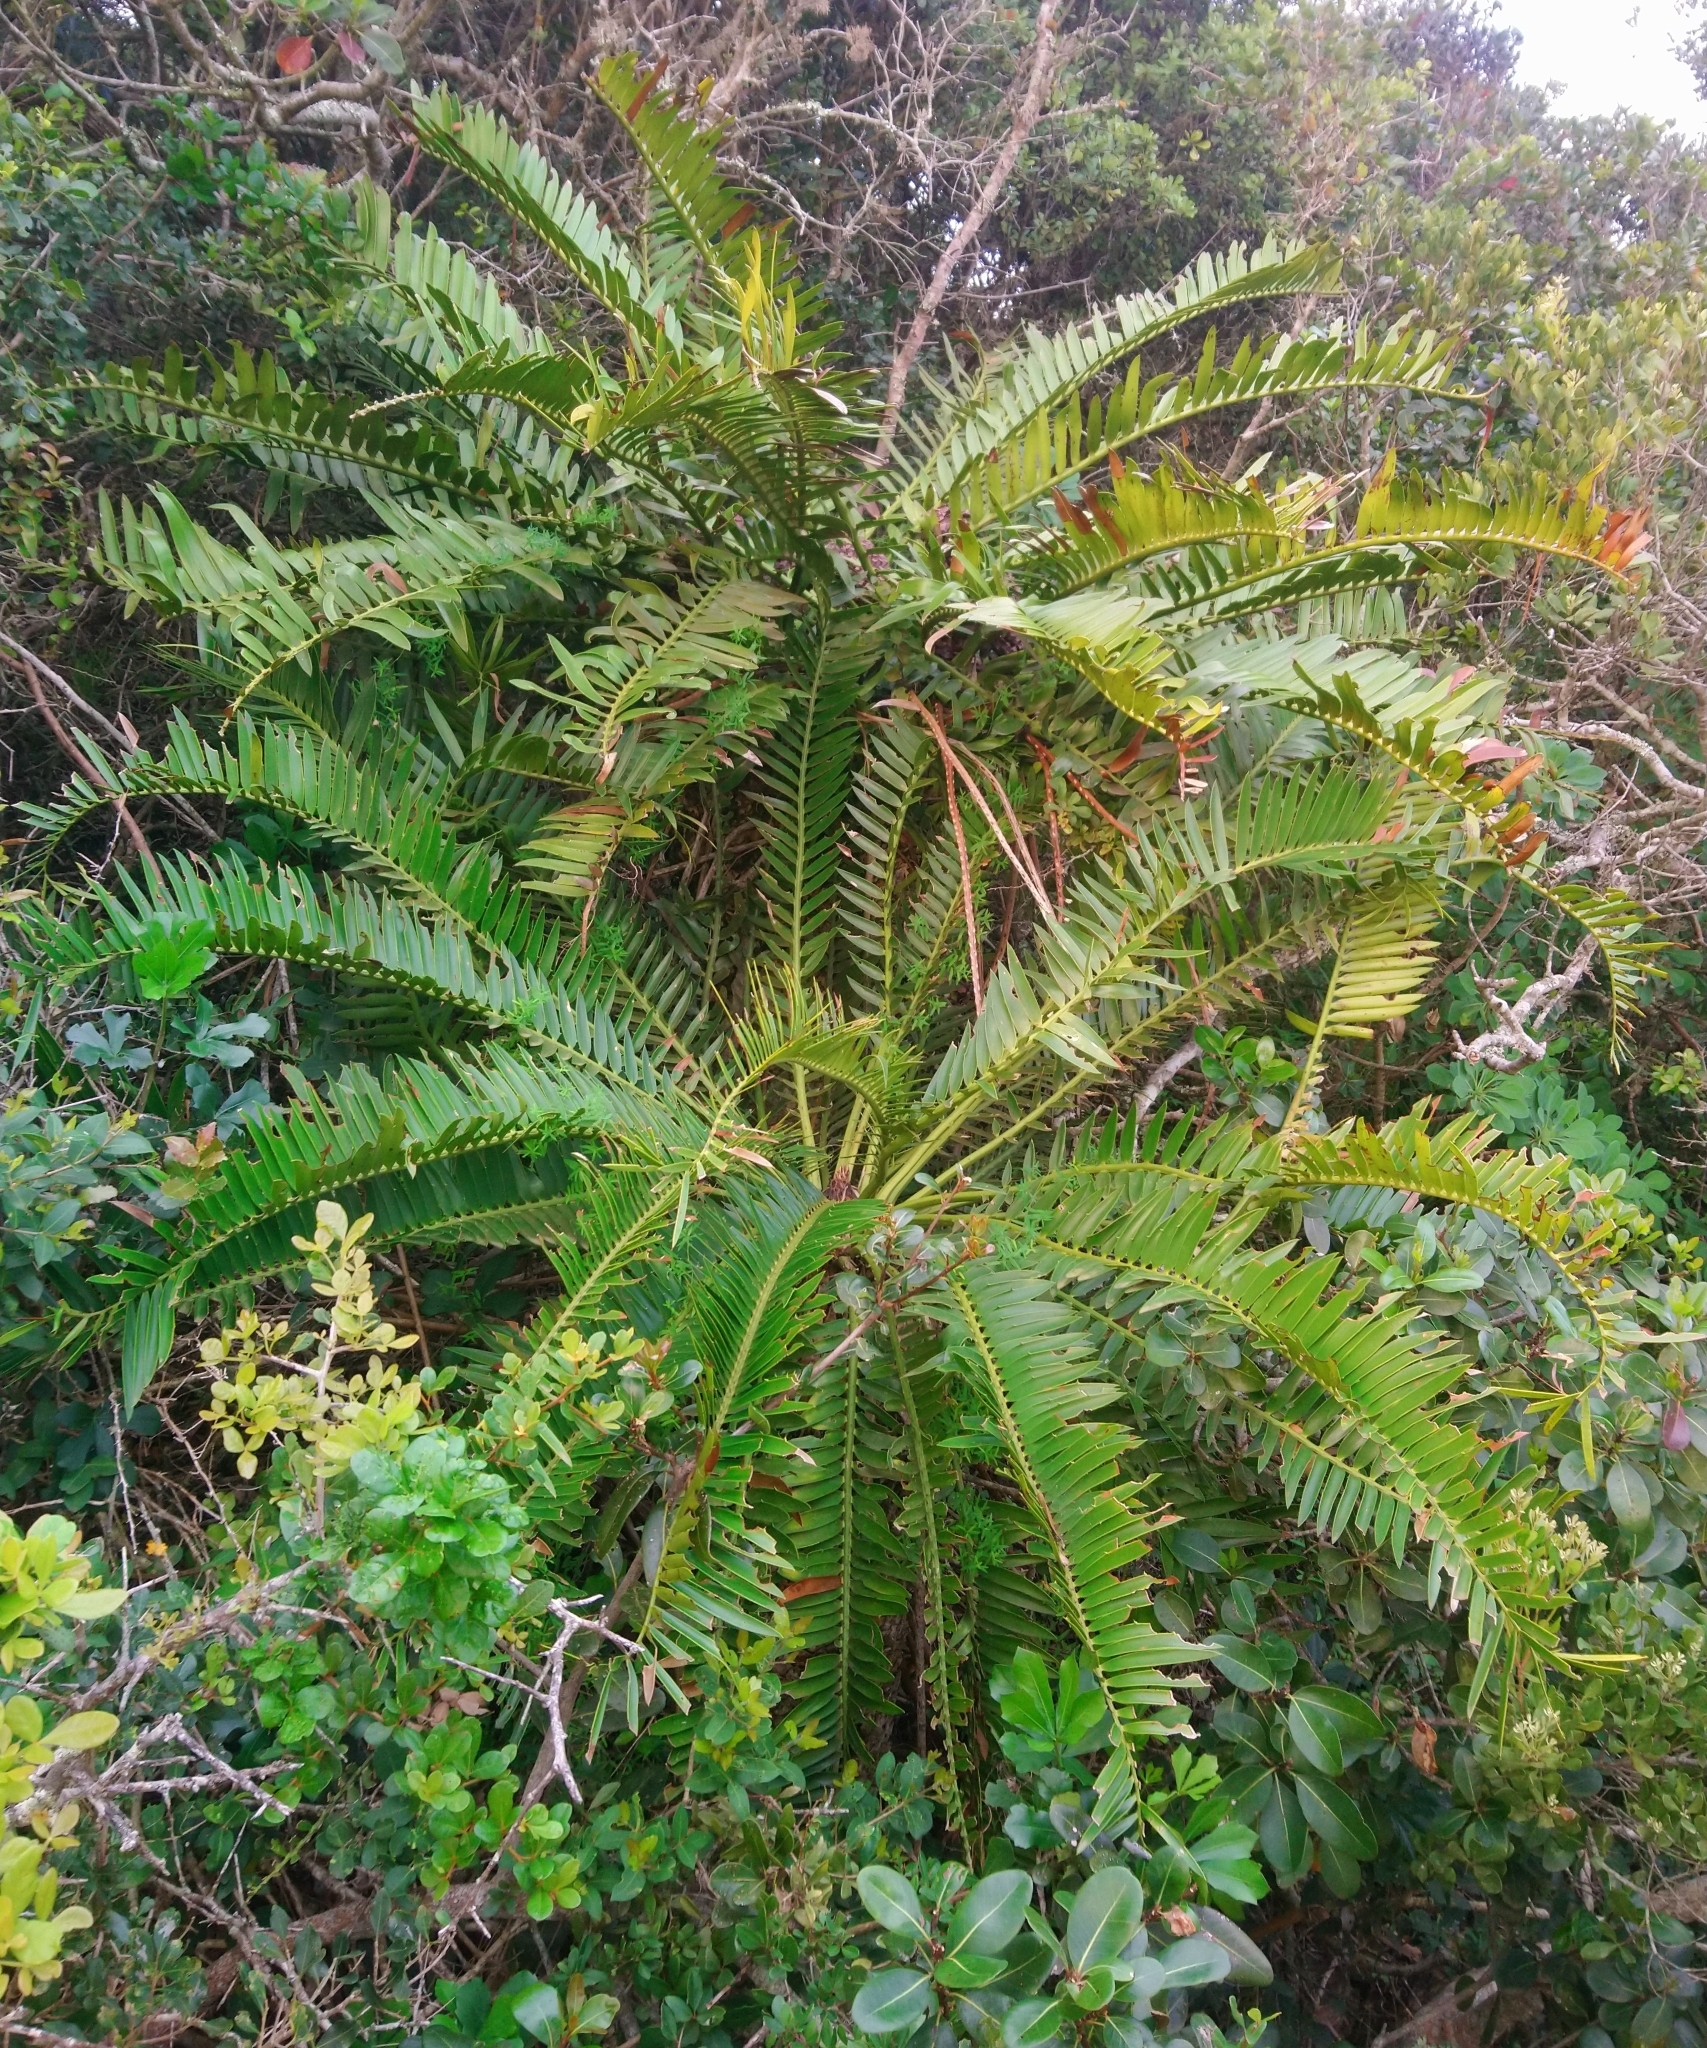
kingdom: Plantae
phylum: Tracheophyta
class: Cycadopsida
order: Cycadales
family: Zamiaceae
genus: Encephalartos
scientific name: Encephalartos altensteinii
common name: Eastern cape cycad
